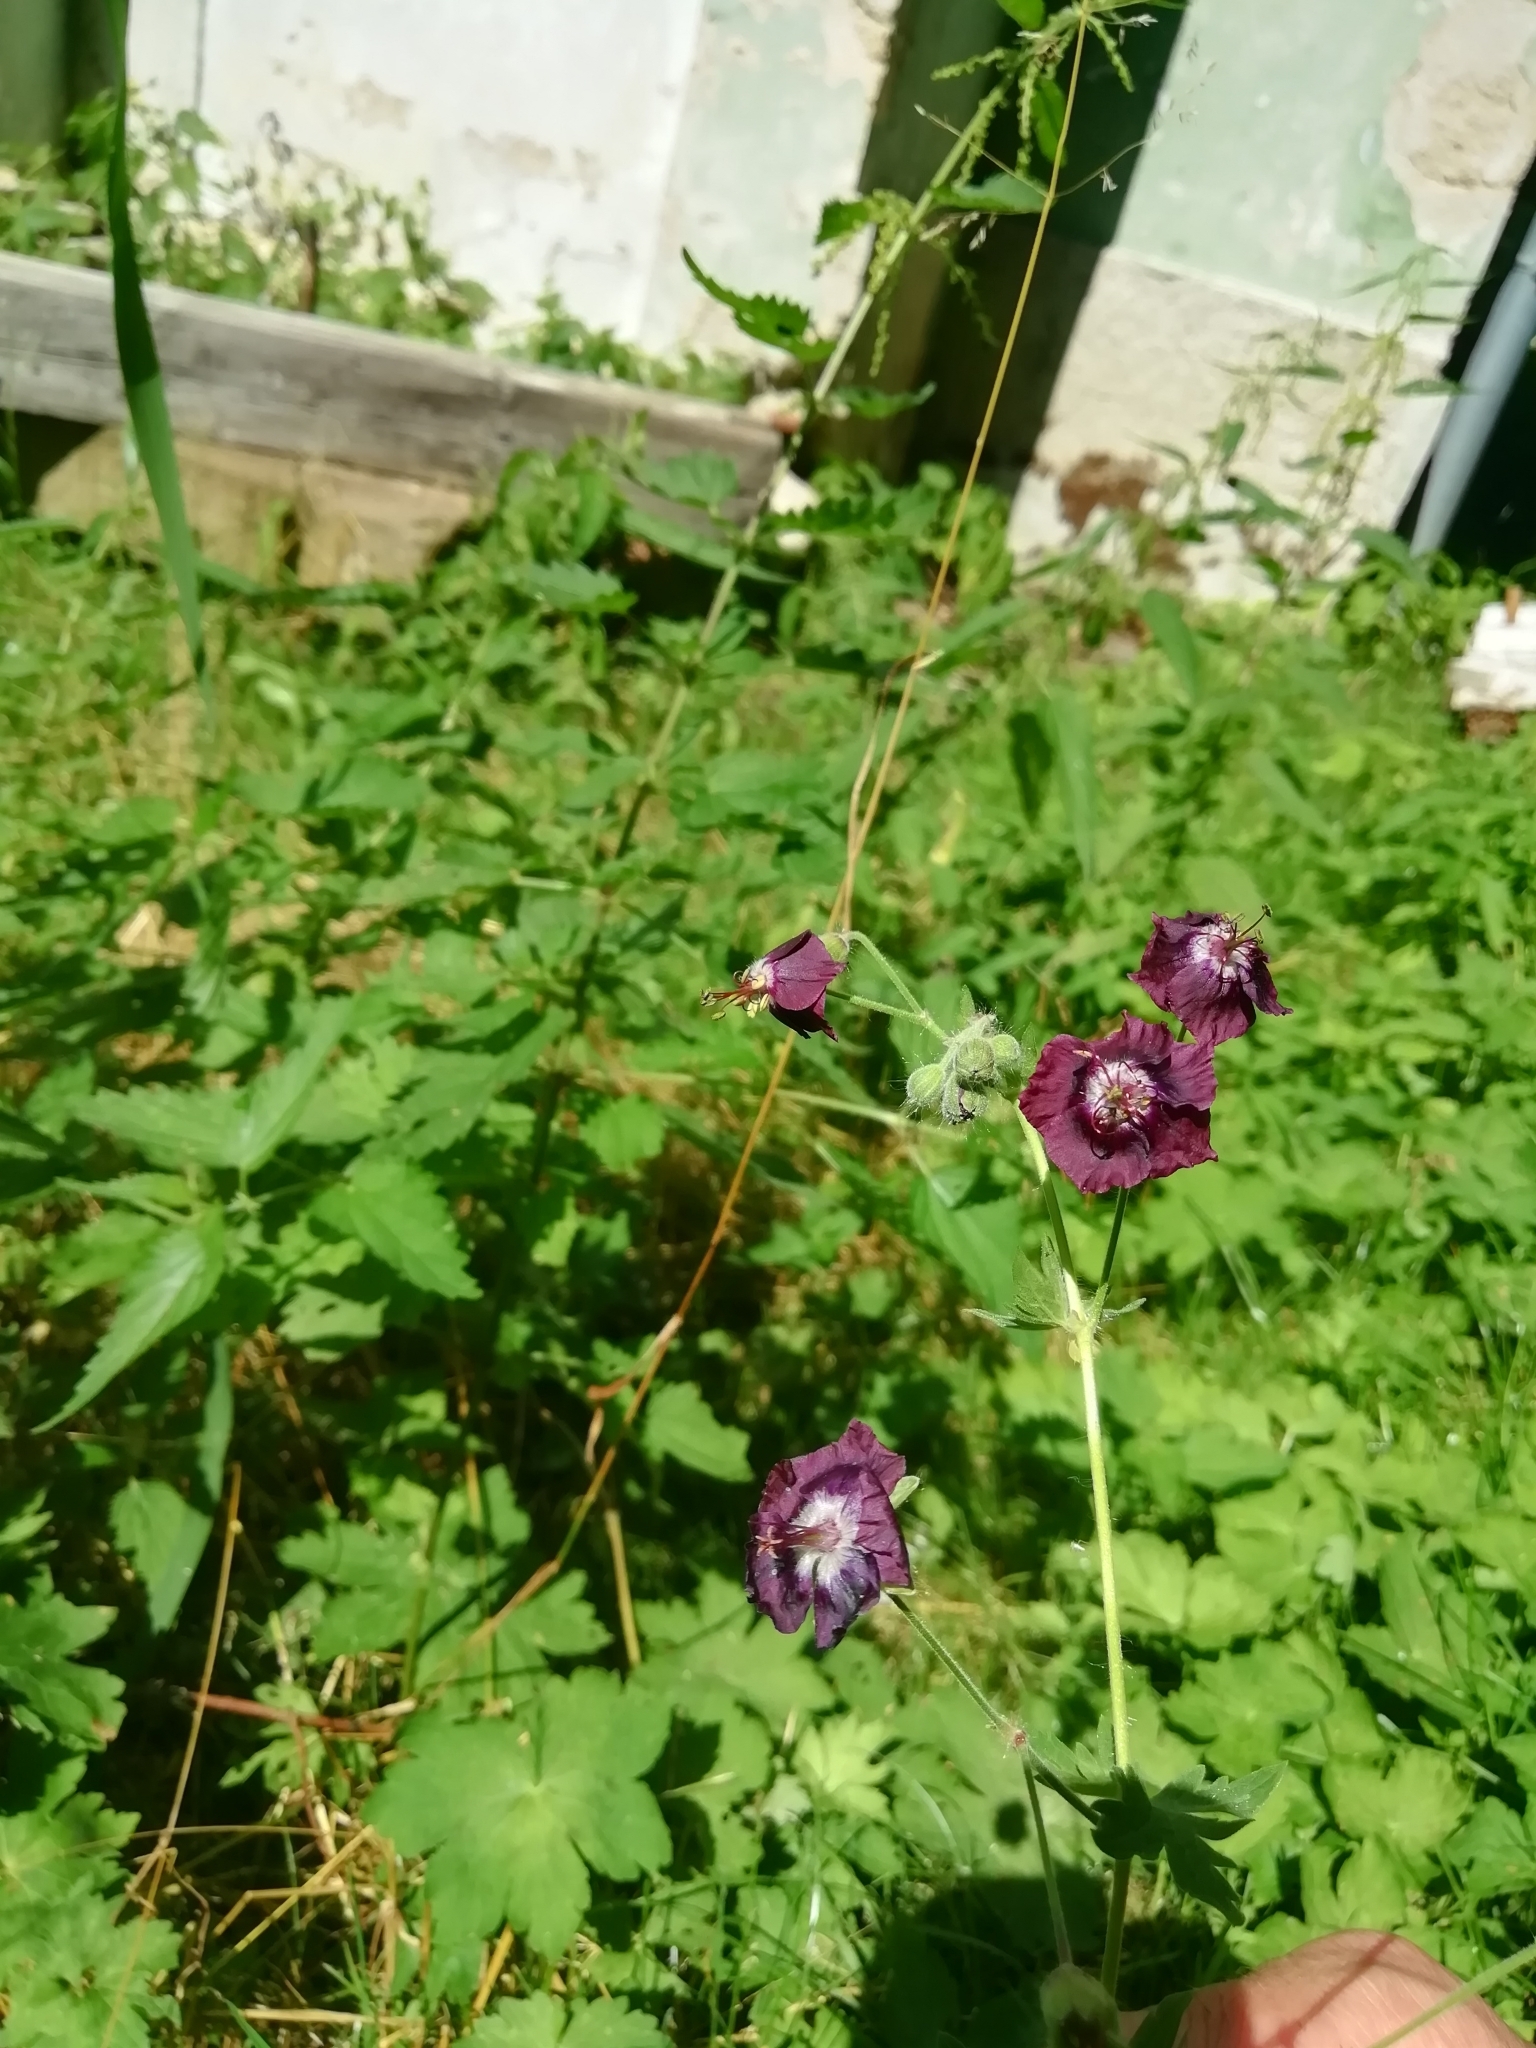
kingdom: Plantae
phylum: Tracheophyta
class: Magnoliopsida
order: Geraniales
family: Geraniaceae
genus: Geranium
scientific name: Geranium phaeum
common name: Dusky crane's-bill
